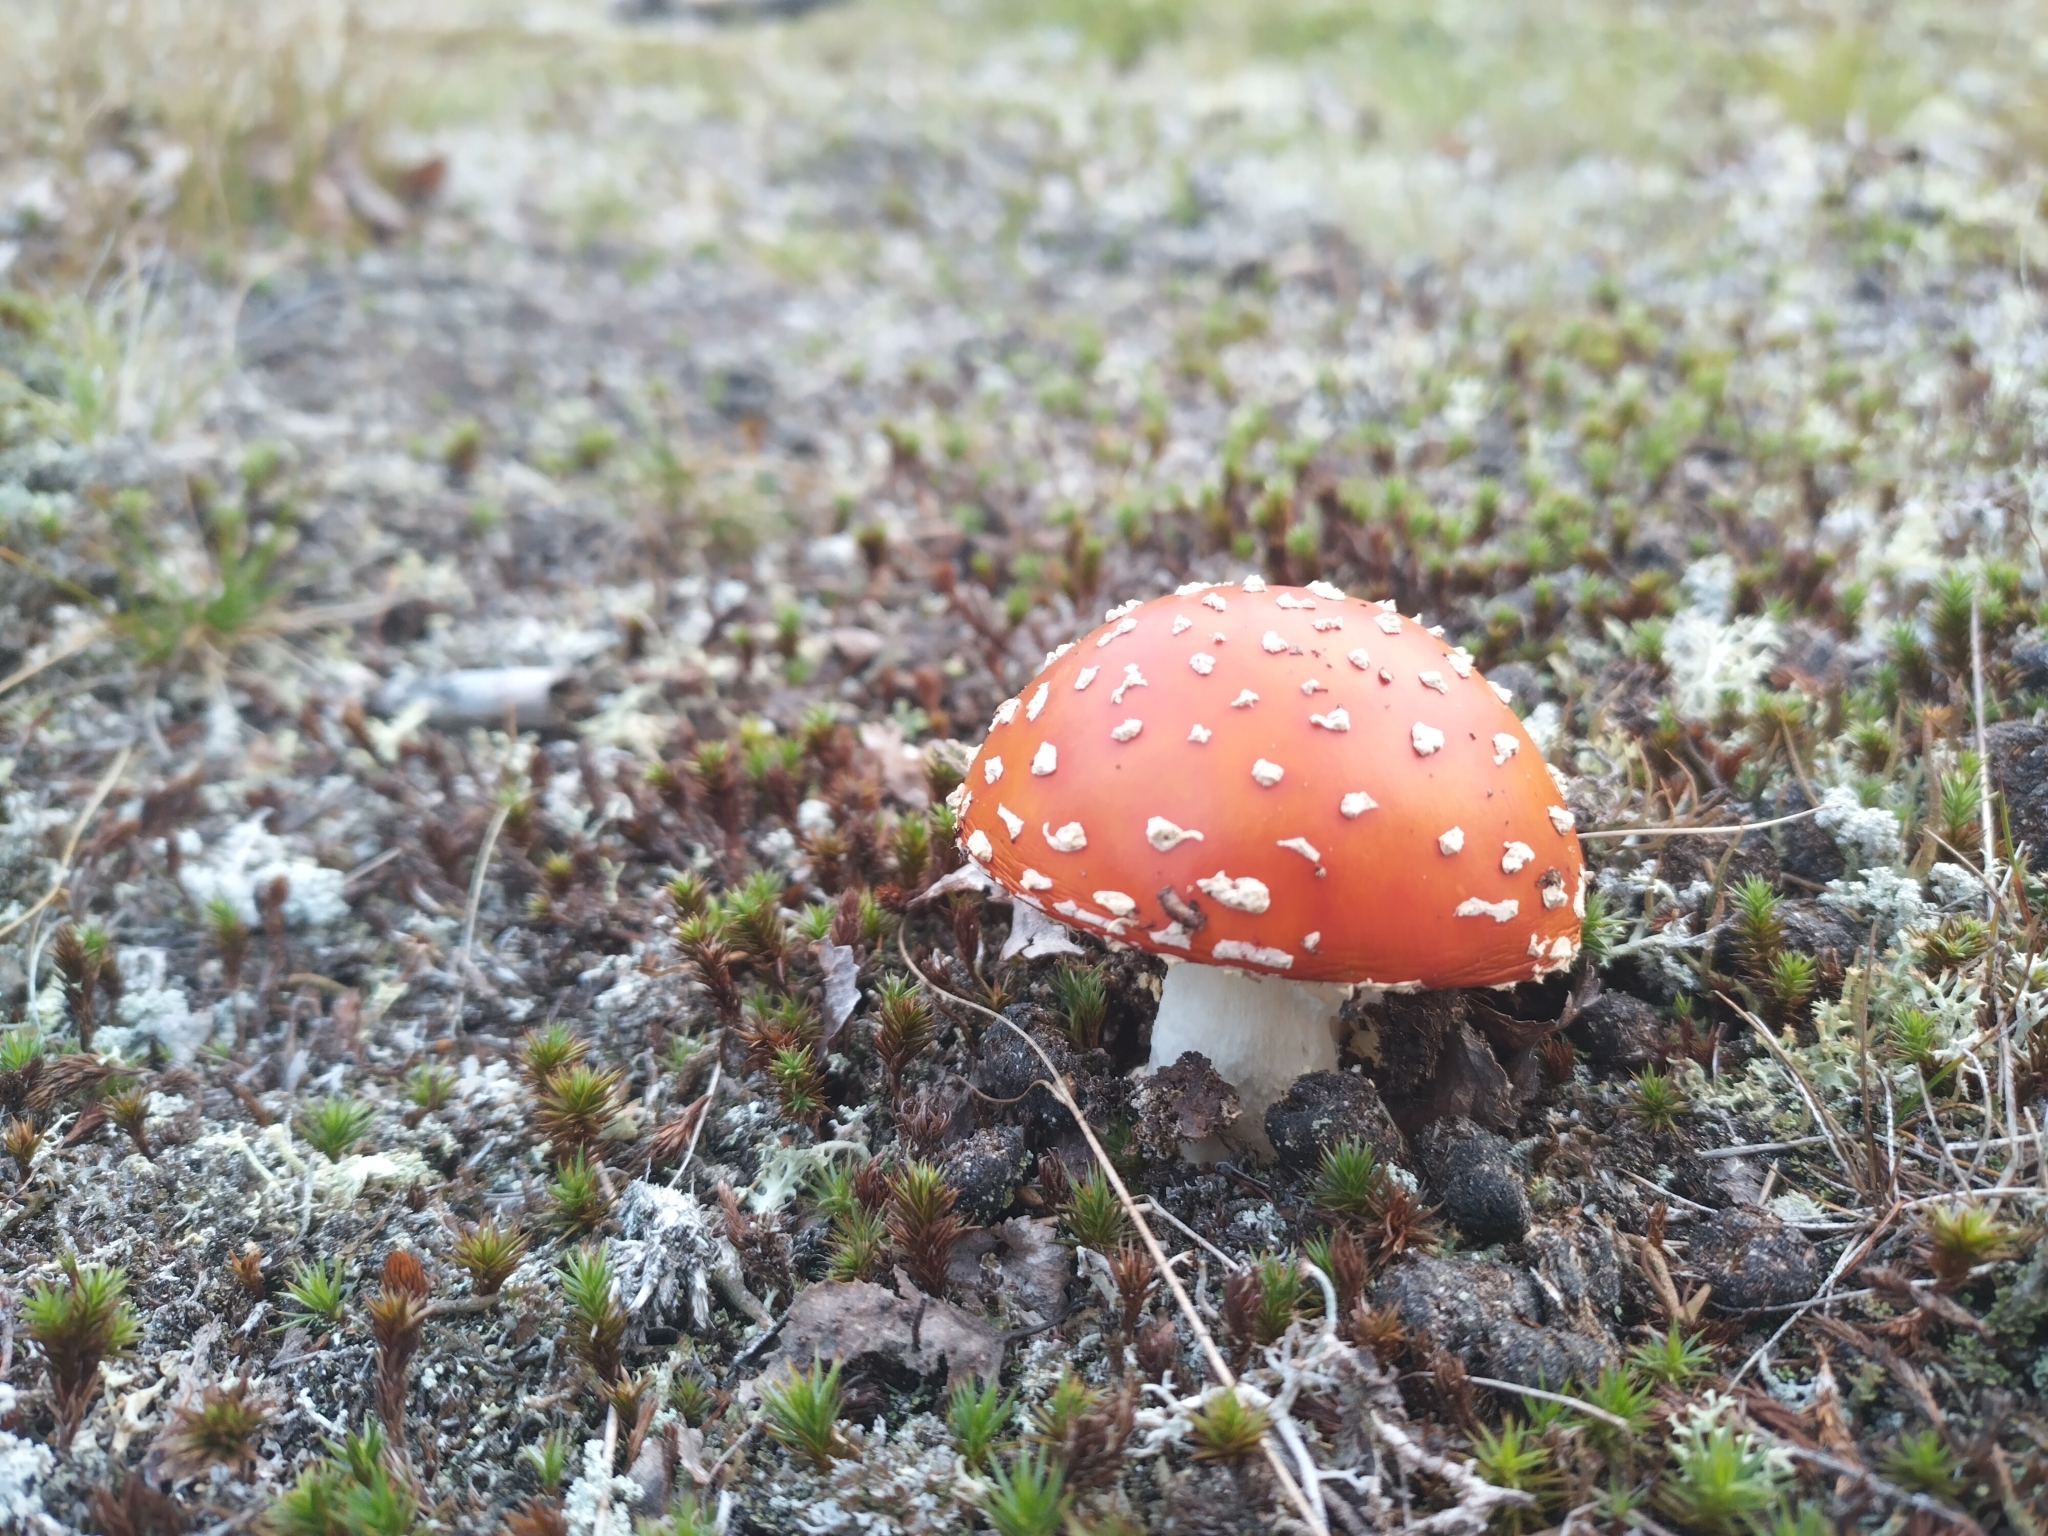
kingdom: Fungi
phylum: Basidiomycota
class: Agaricomycetes
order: Agaricales
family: Amanitaceae
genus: Amanita
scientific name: Amanita muscaria
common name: Fly agaric
